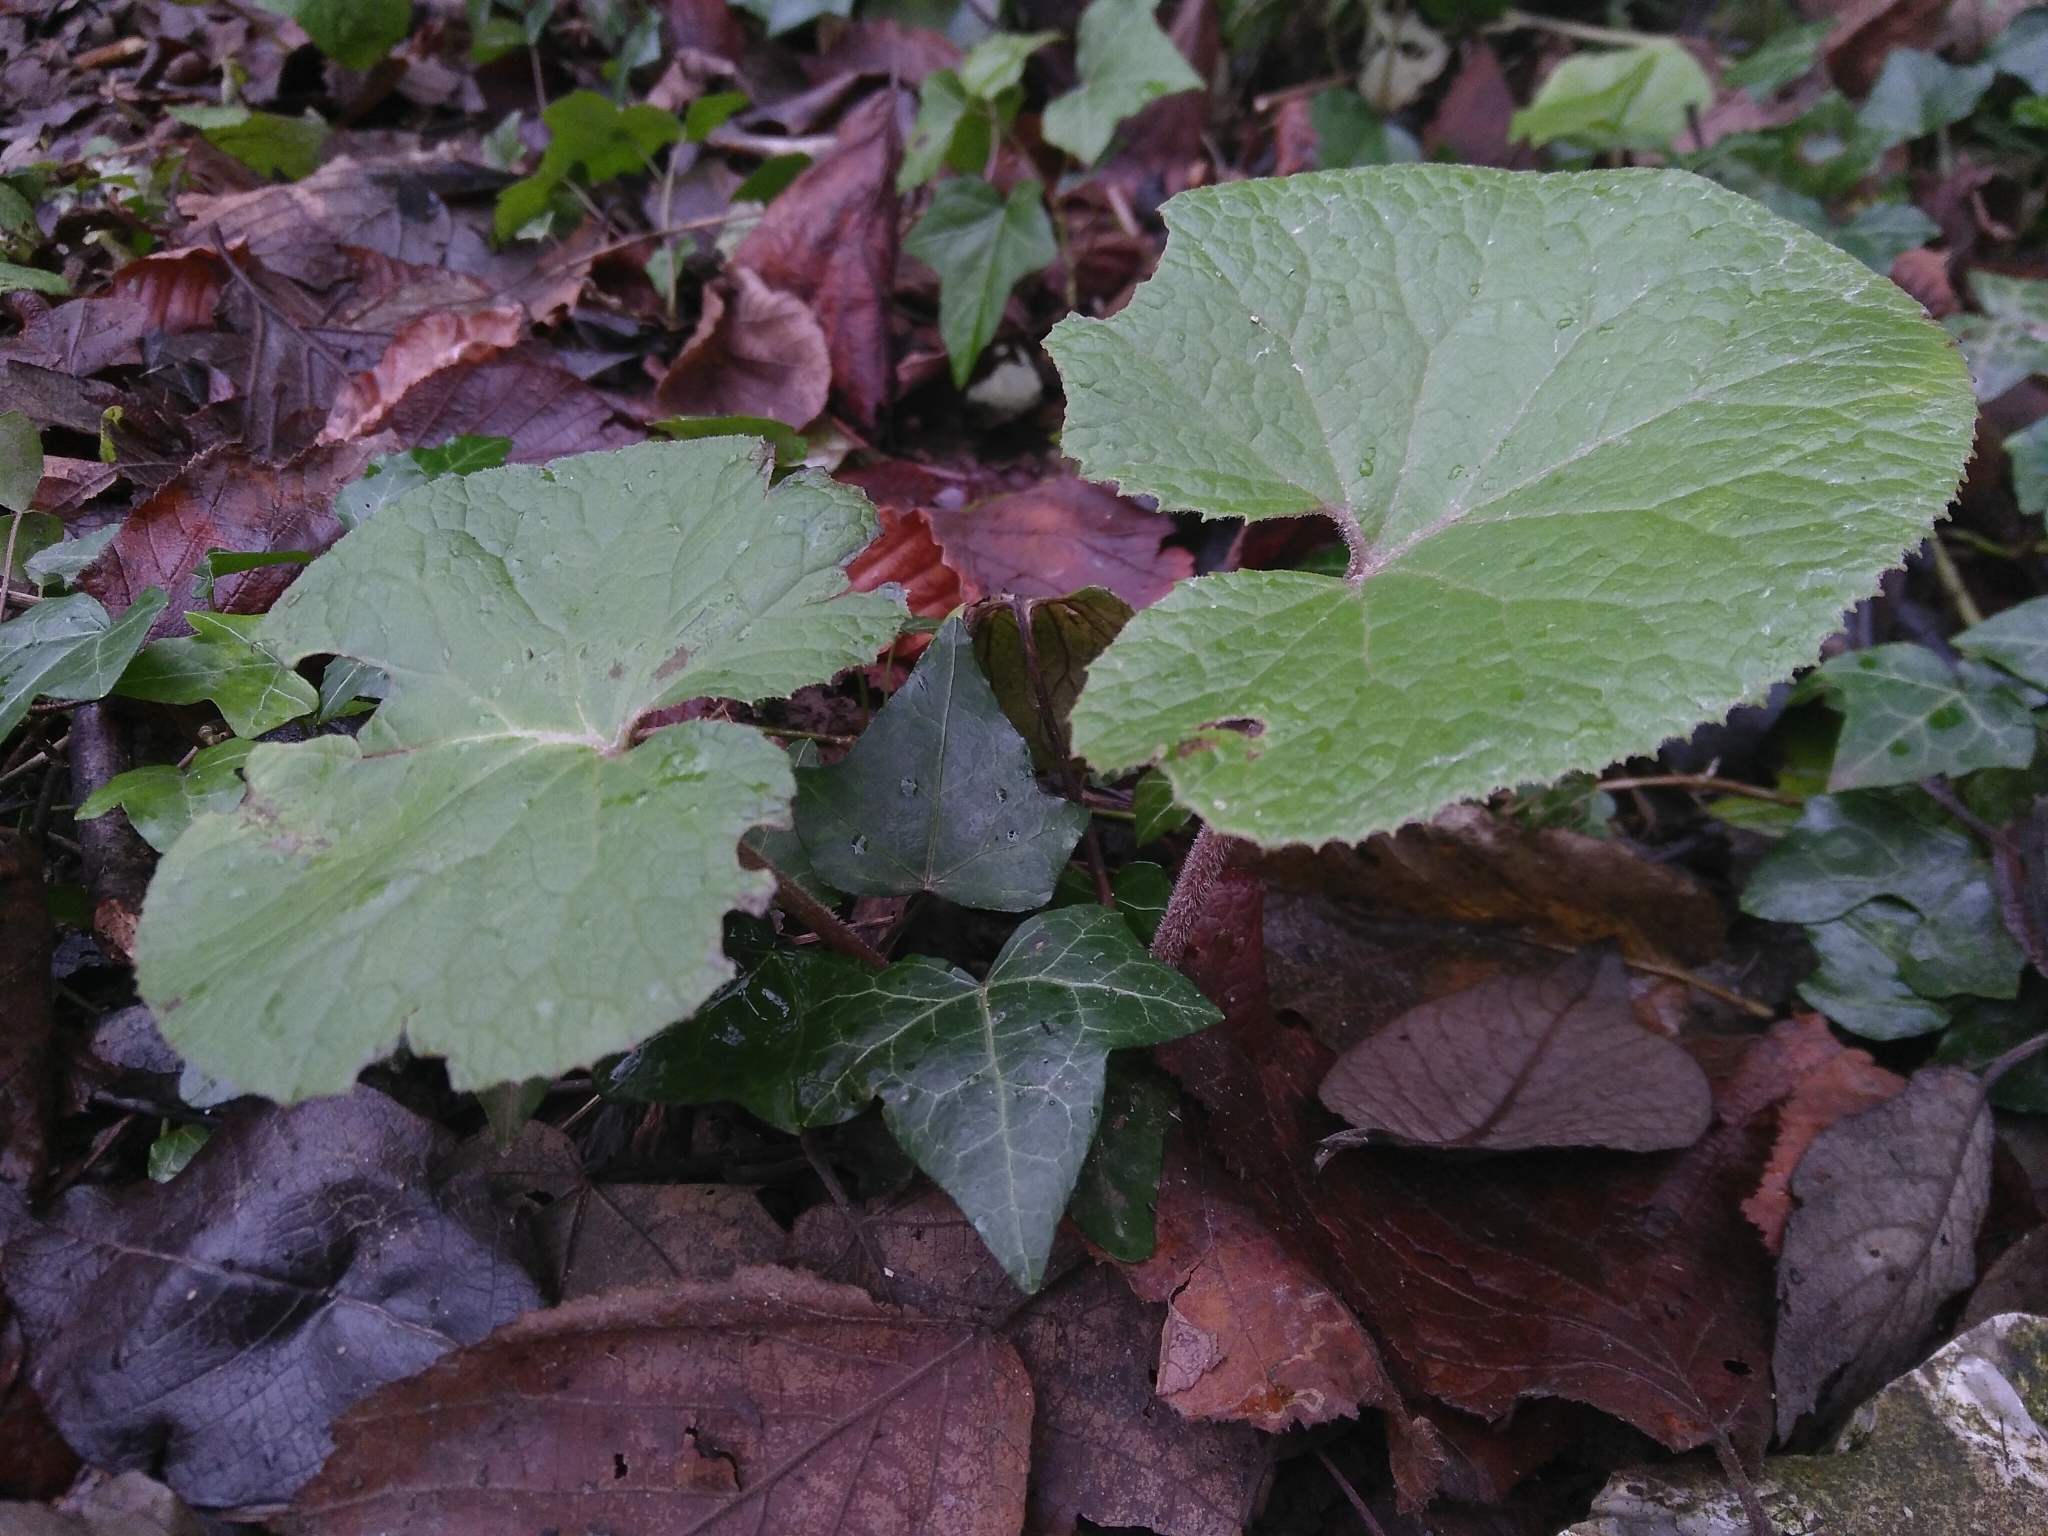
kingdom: Plantae
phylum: Tracheophyta
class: Magnoliopsida
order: Asterales
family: Asteraceae
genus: Petasites
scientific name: Petasites pyrenaicus
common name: Winter heliotrope
